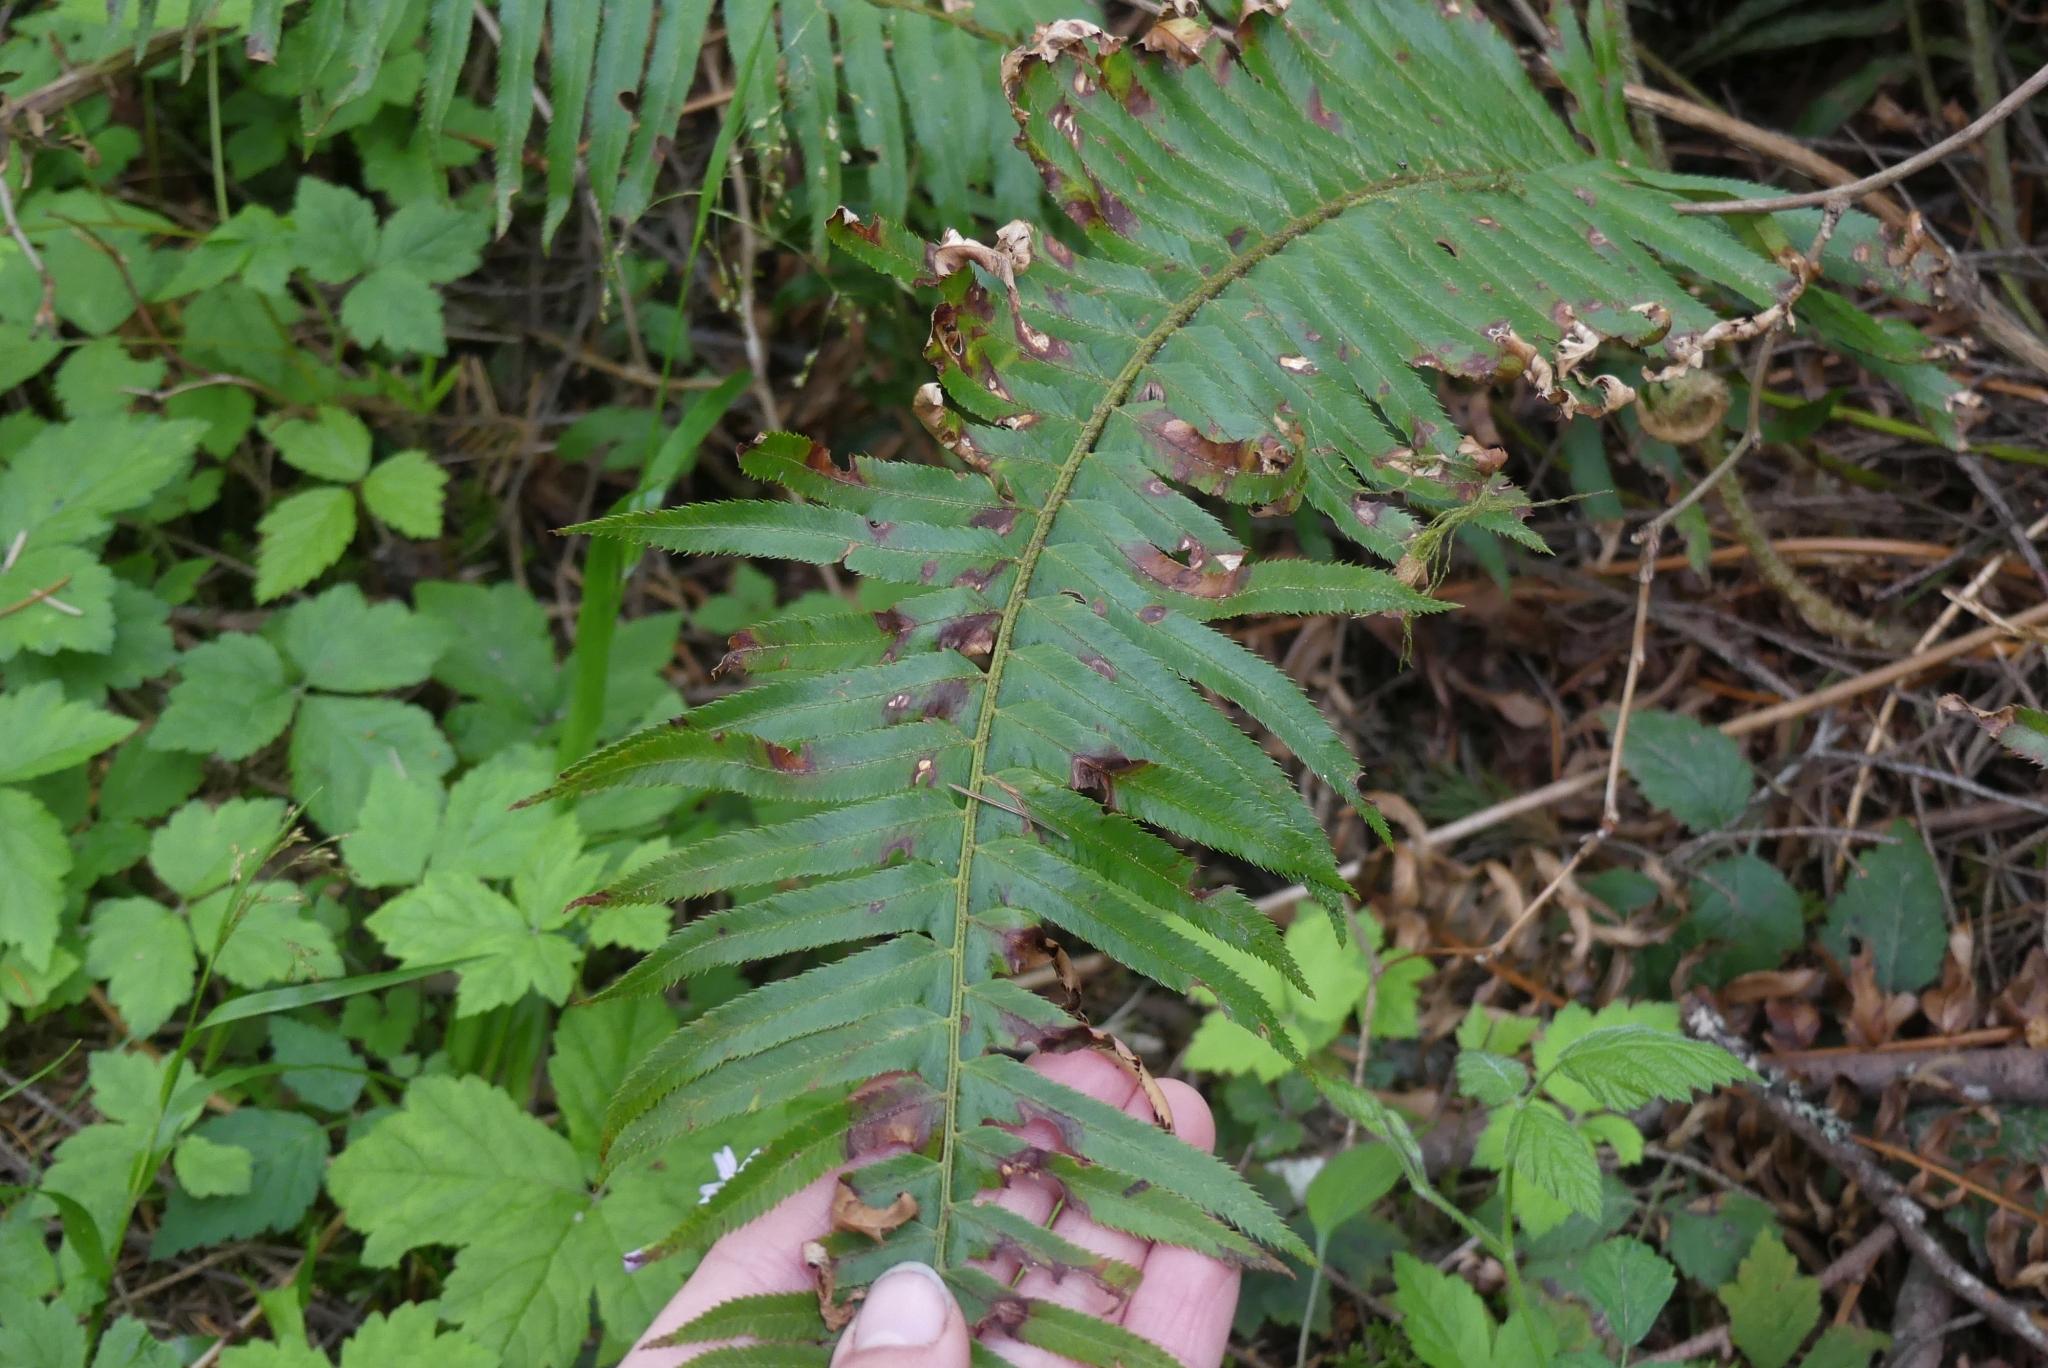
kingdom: Plantae
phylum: Tracheophyta
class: Polypodiopsida
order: Polypodiales
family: Dryopteridaceae
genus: Polystichum
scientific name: Polystichum munitum
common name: Western sword-fern
